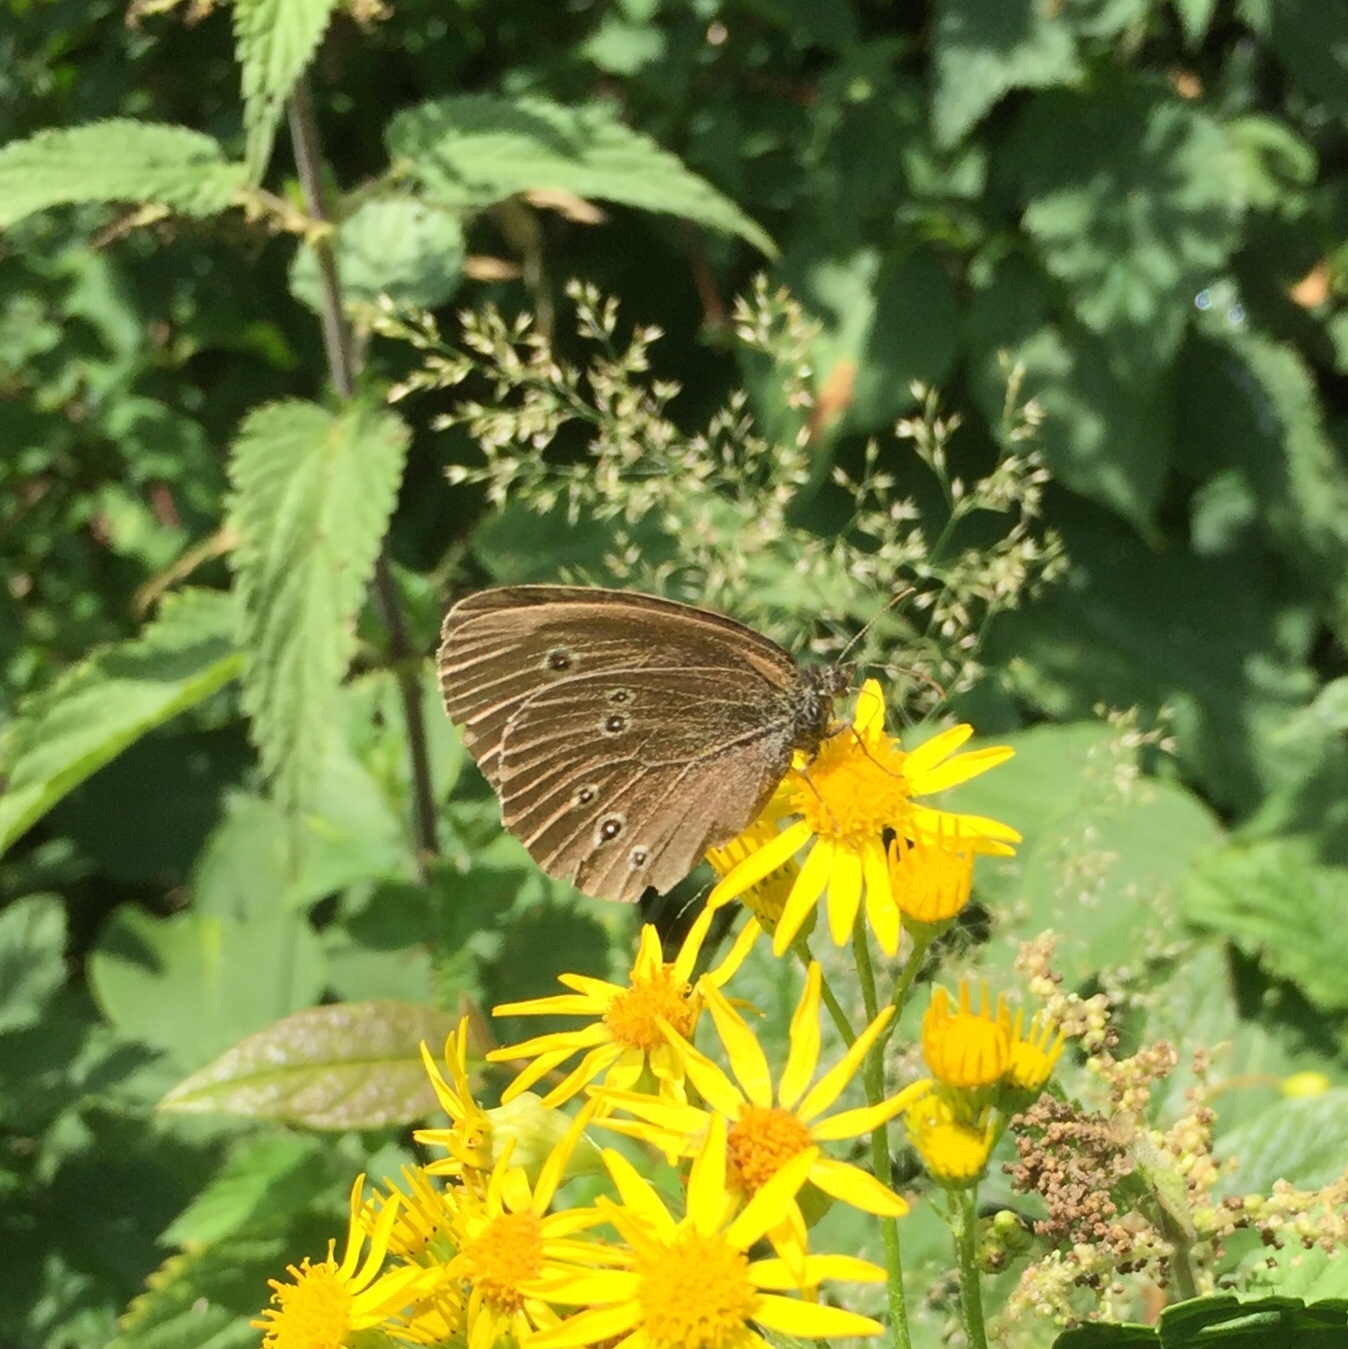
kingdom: Animalia
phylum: Arthropoda
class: Insecta
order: Lepidoptera
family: Nymphalidae
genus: Aphantopus
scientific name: Aphantopus hyperantus
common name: Ringlet
